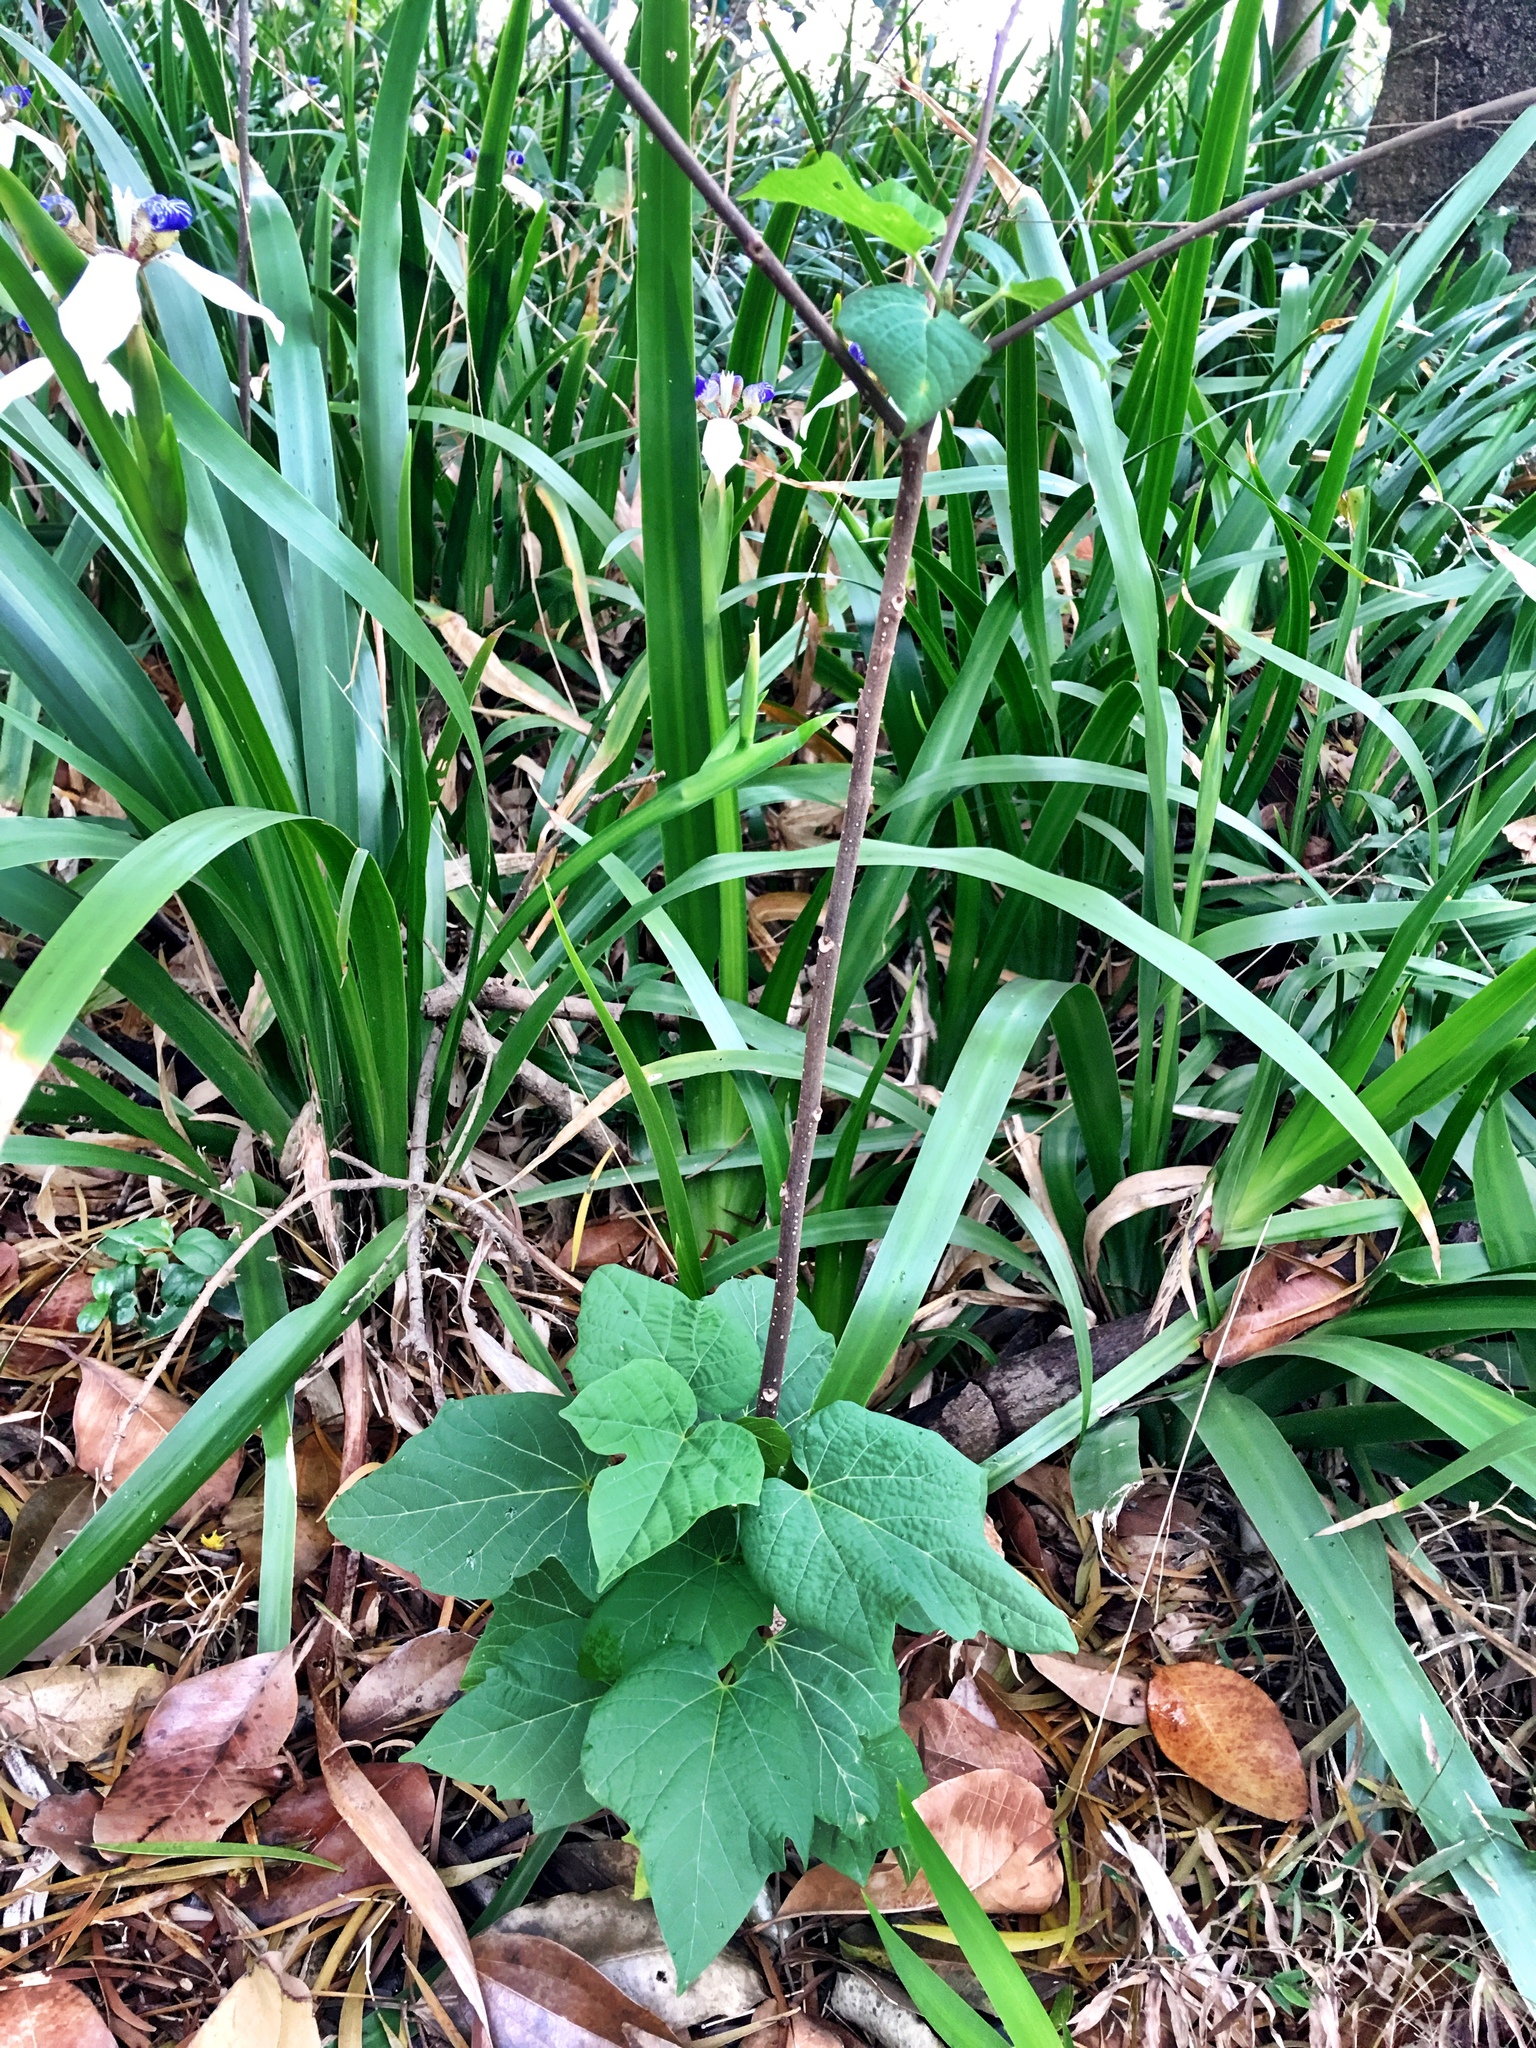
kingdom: Plantae
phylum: Tracheophyta
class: Magnoliopsida
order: Cornales
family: Cornaceae
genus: Alangium
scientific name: Alangium chinense
